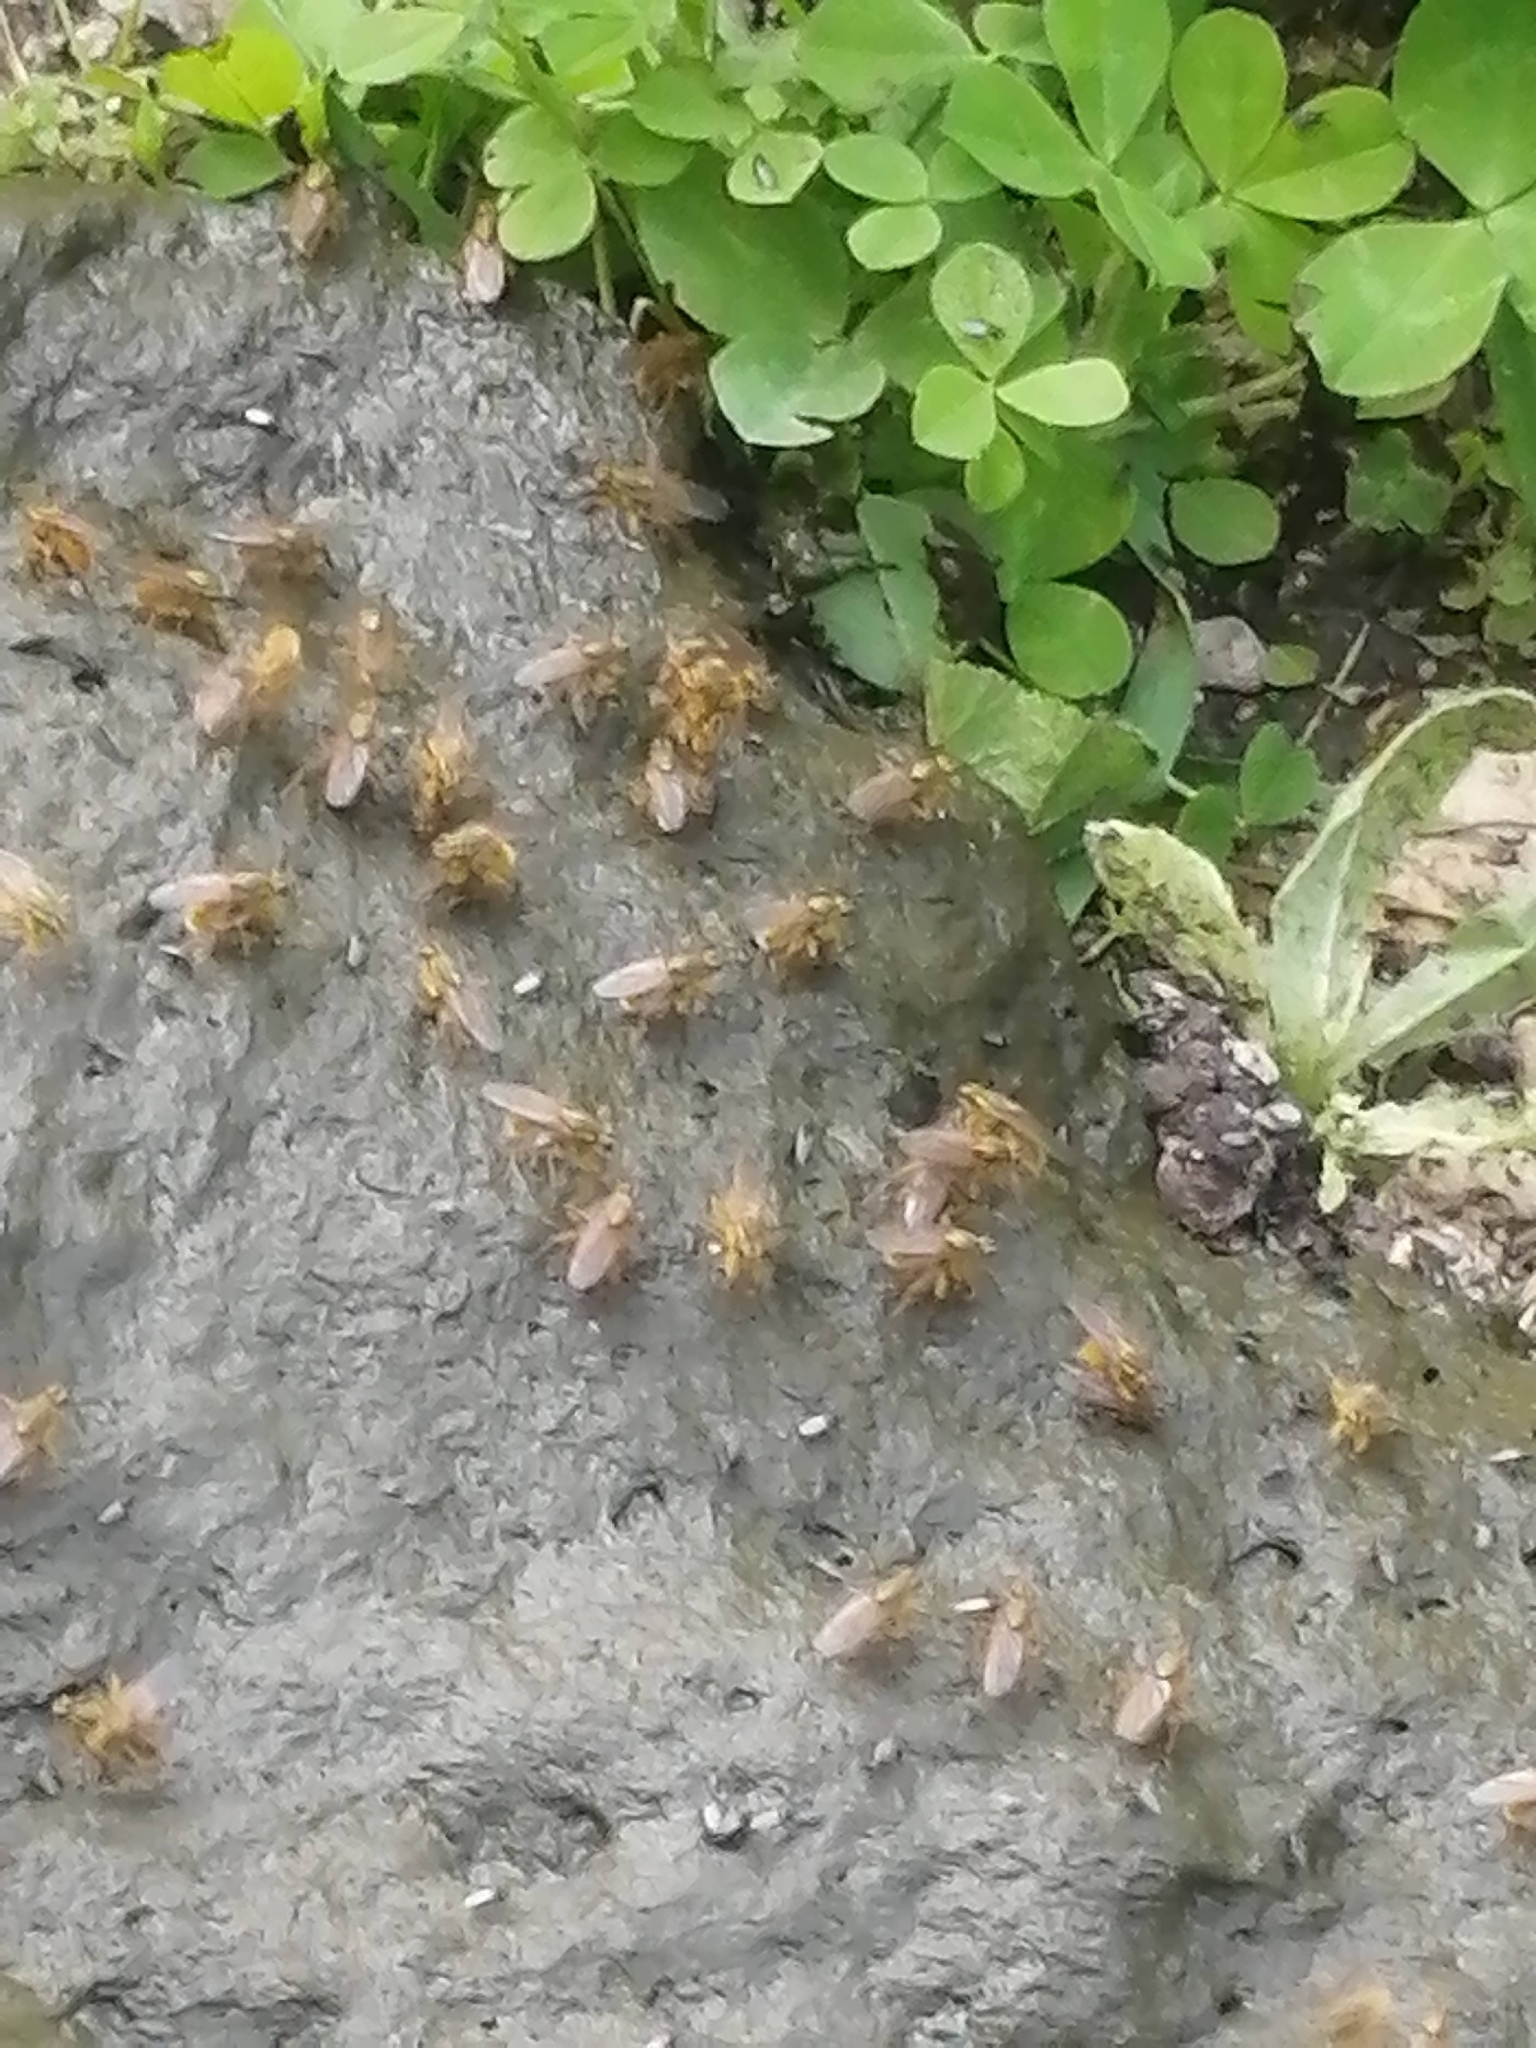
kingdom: Animalia
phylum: Arthropoda
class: Insecta
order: Diptera
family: Scathophagidae
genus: Scathophaga
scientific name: Scathophaga stercoraria
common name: Yellow dung fly
